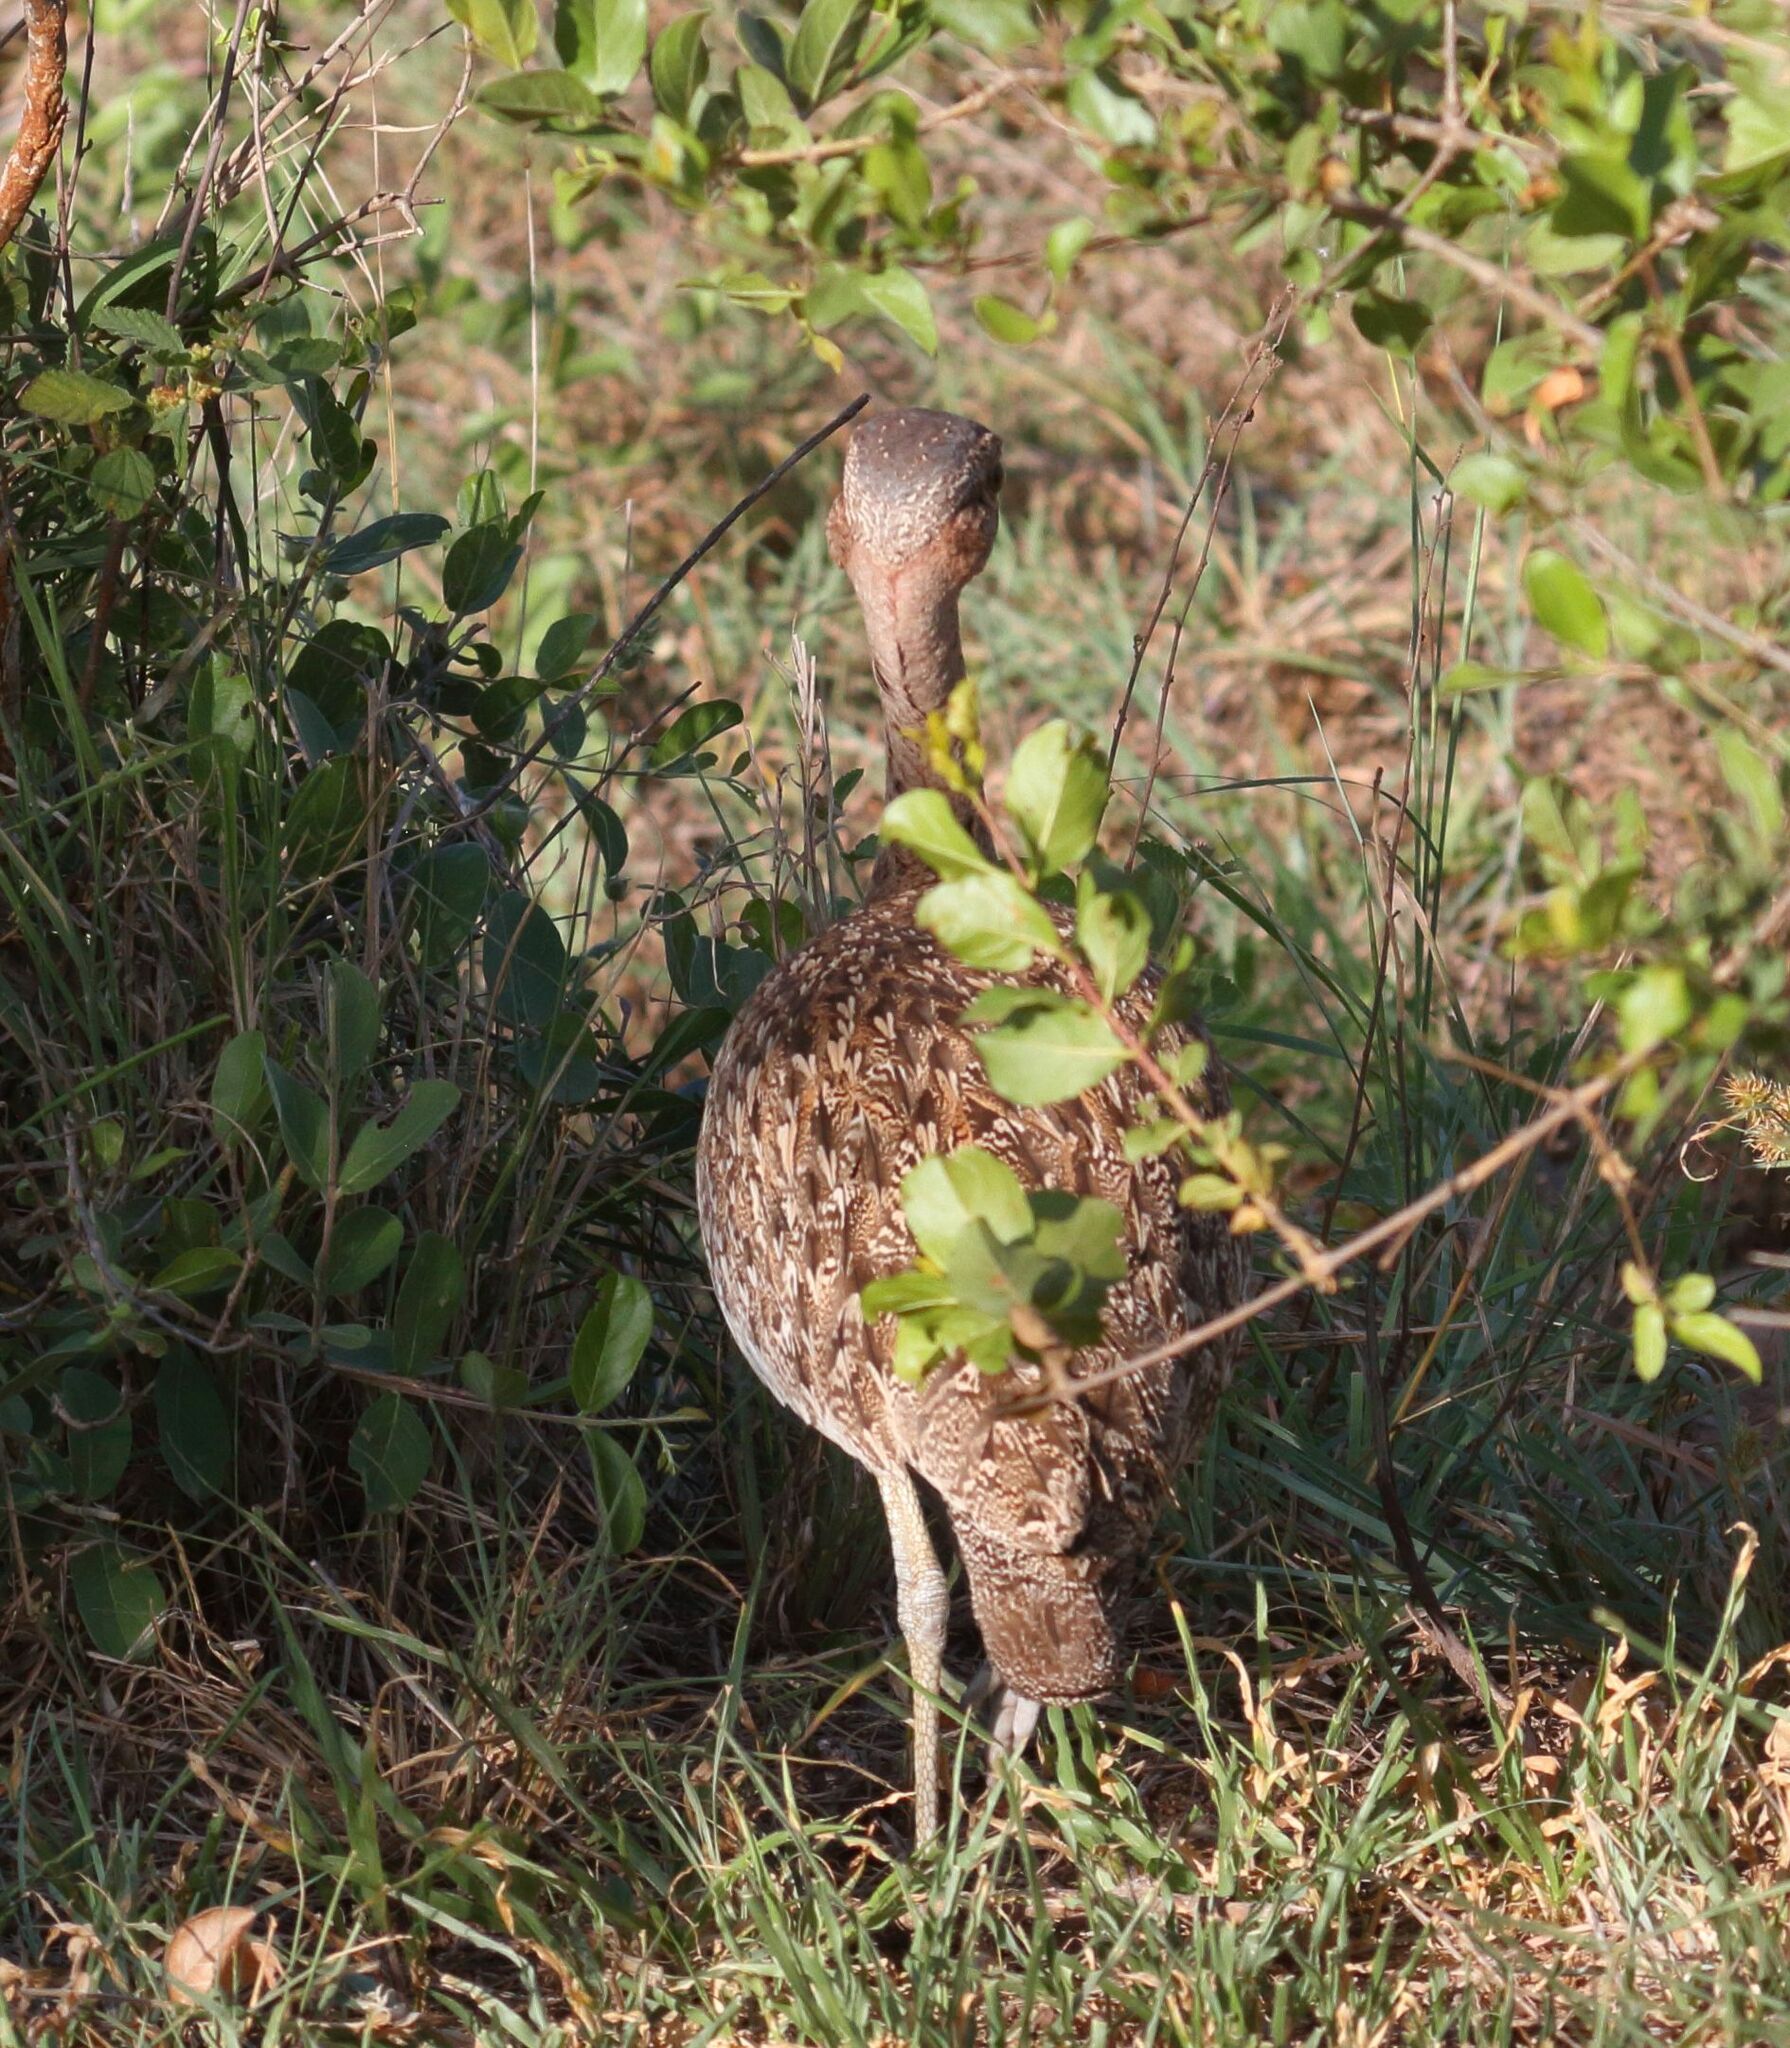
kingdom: Animalia
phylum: Chordata
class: Aves
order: Otidiformes
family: Otididae
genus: Lophotis
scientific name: Lophotis ruficrista
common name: Red-crested korhaan
